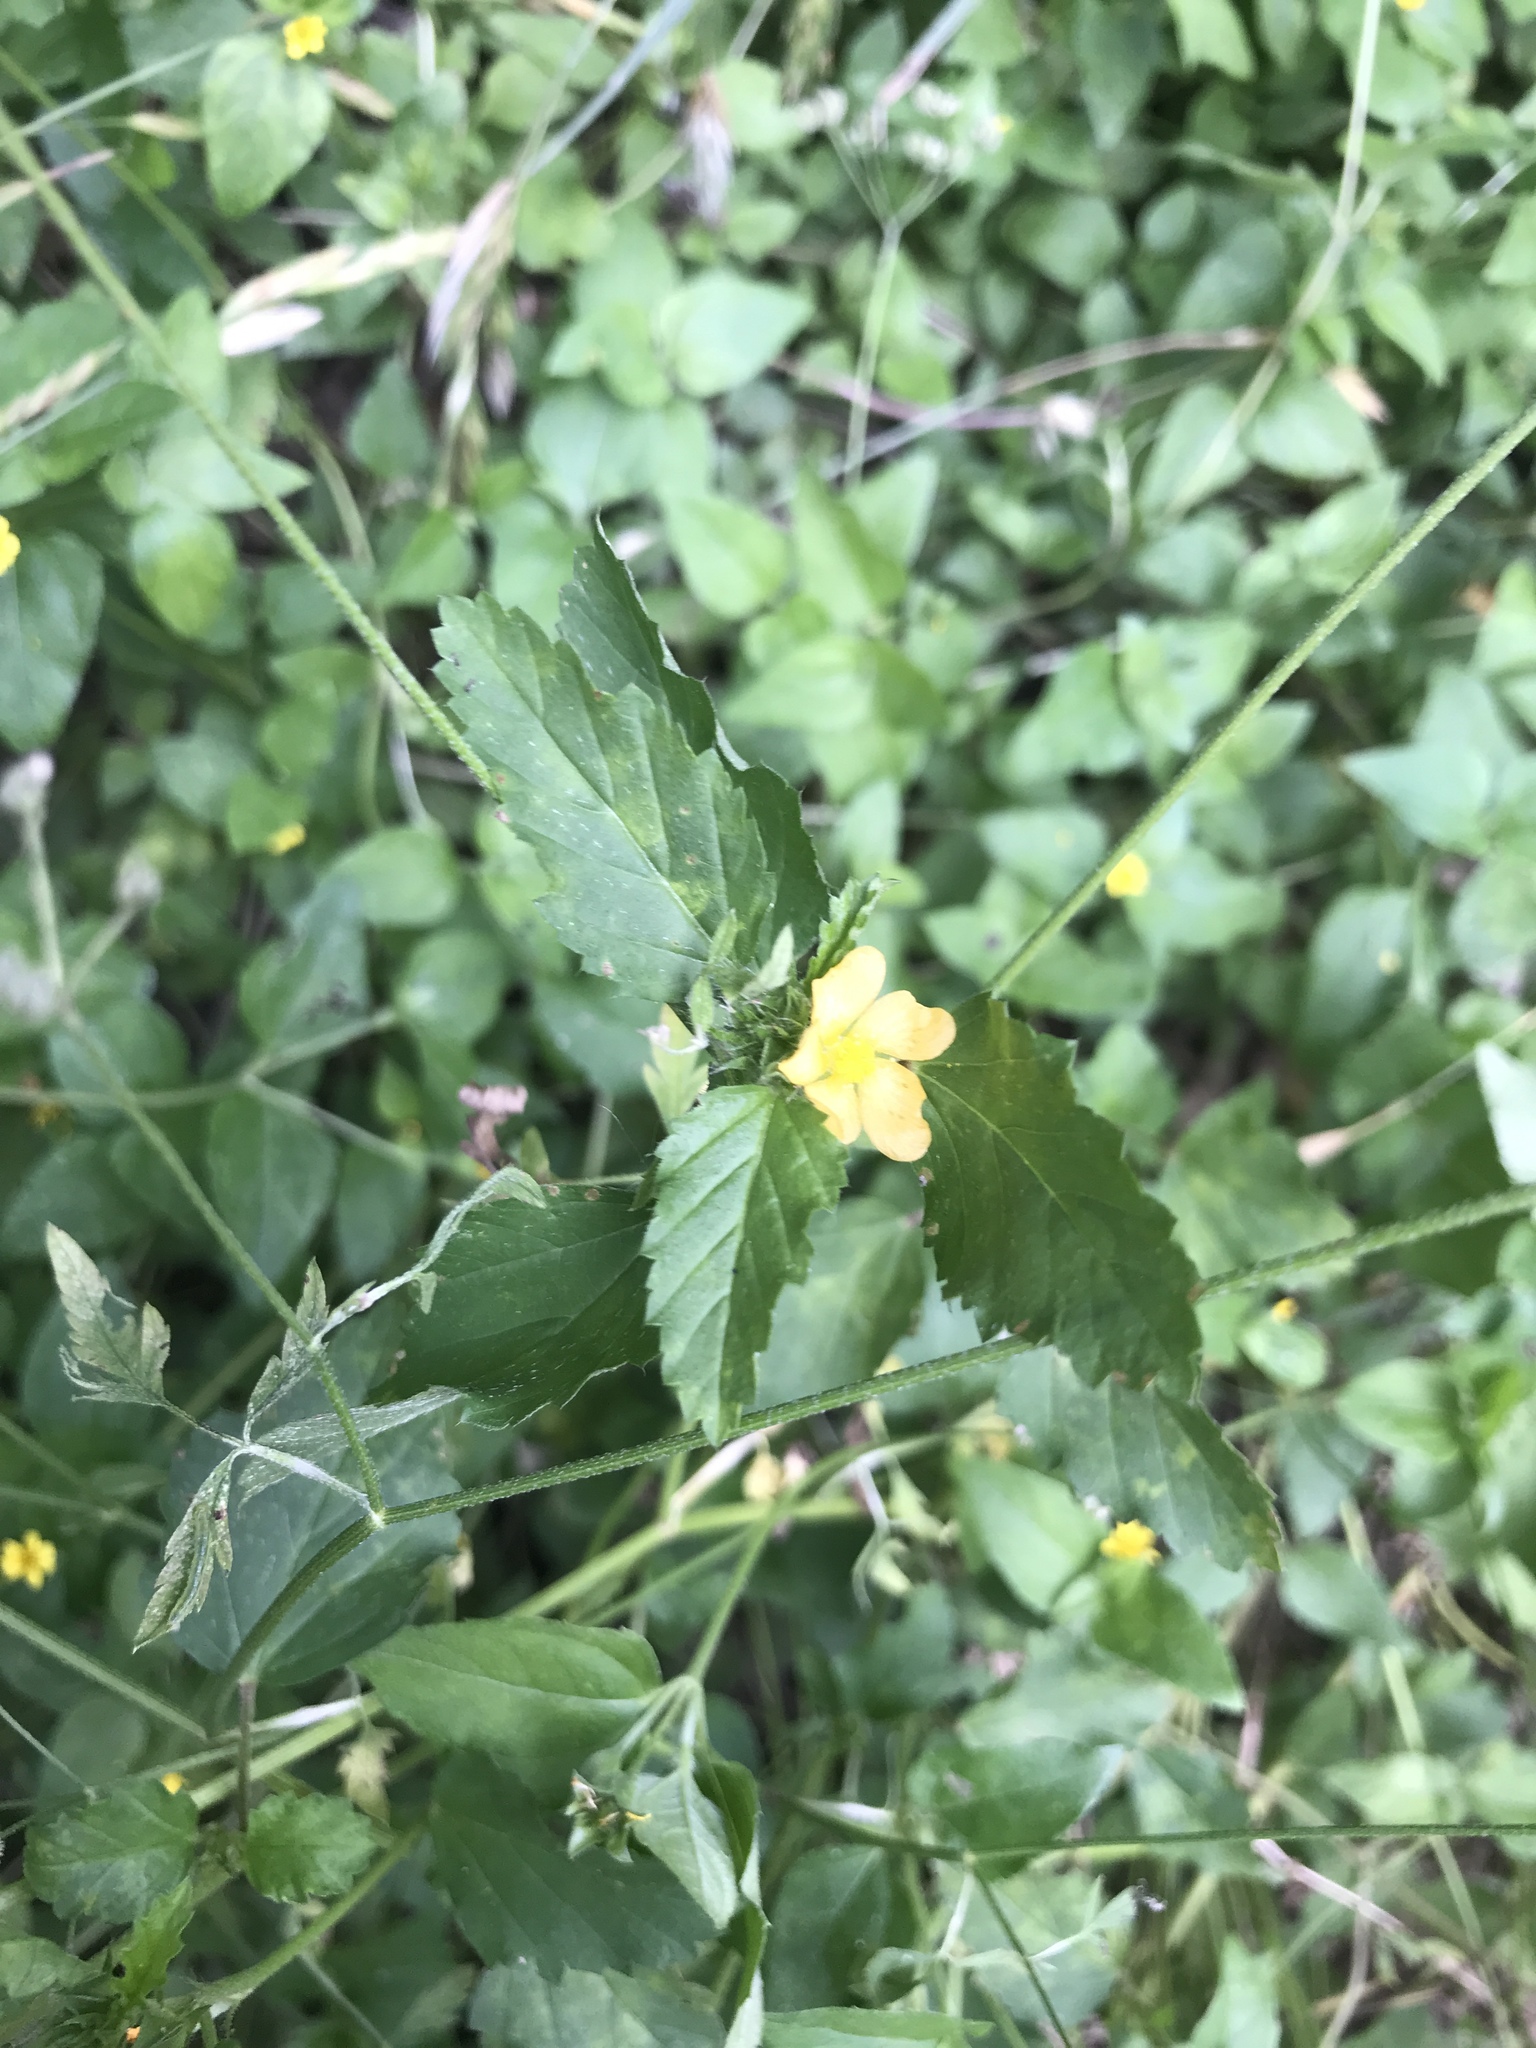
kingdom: Plantae
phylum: Tracheophyta
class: Magnoliopsida
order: Malvales
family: Malvaceae
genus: Malvastrum
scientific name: Malvastrum coromandelianum
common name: Threelobe false mallow
